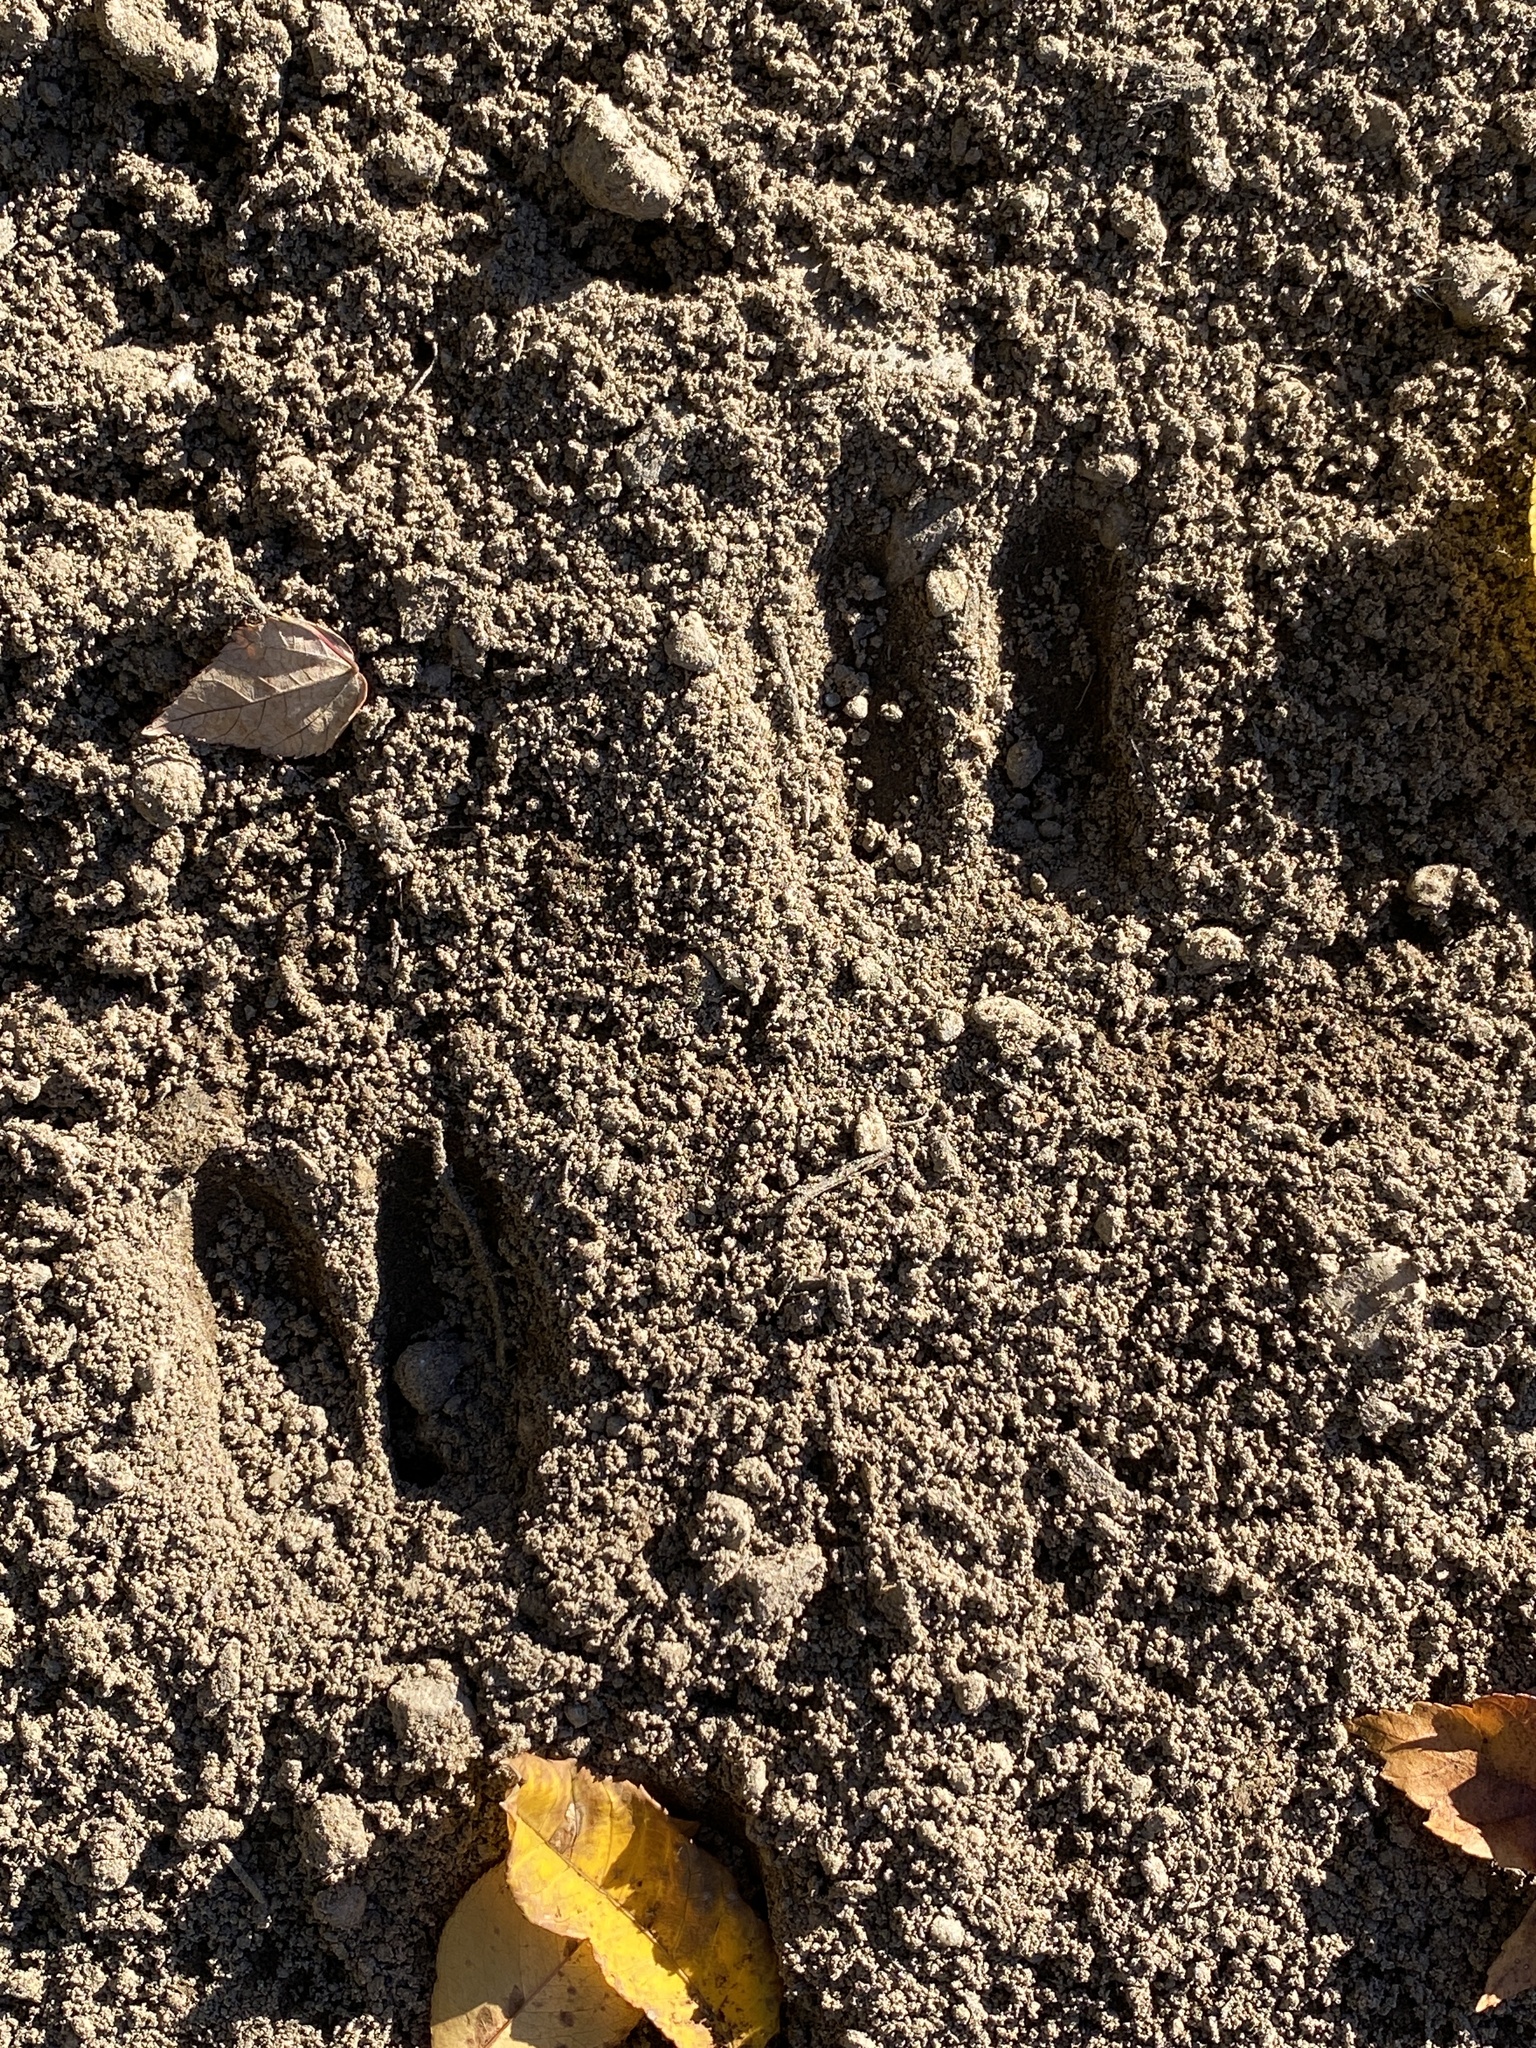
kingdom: Animalia
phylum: Chordata
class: Mammalia
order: Artiodactyla
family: Cervidae
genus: Odocoileus
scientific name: Odocoileus virginianus
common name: White-tailed deer
